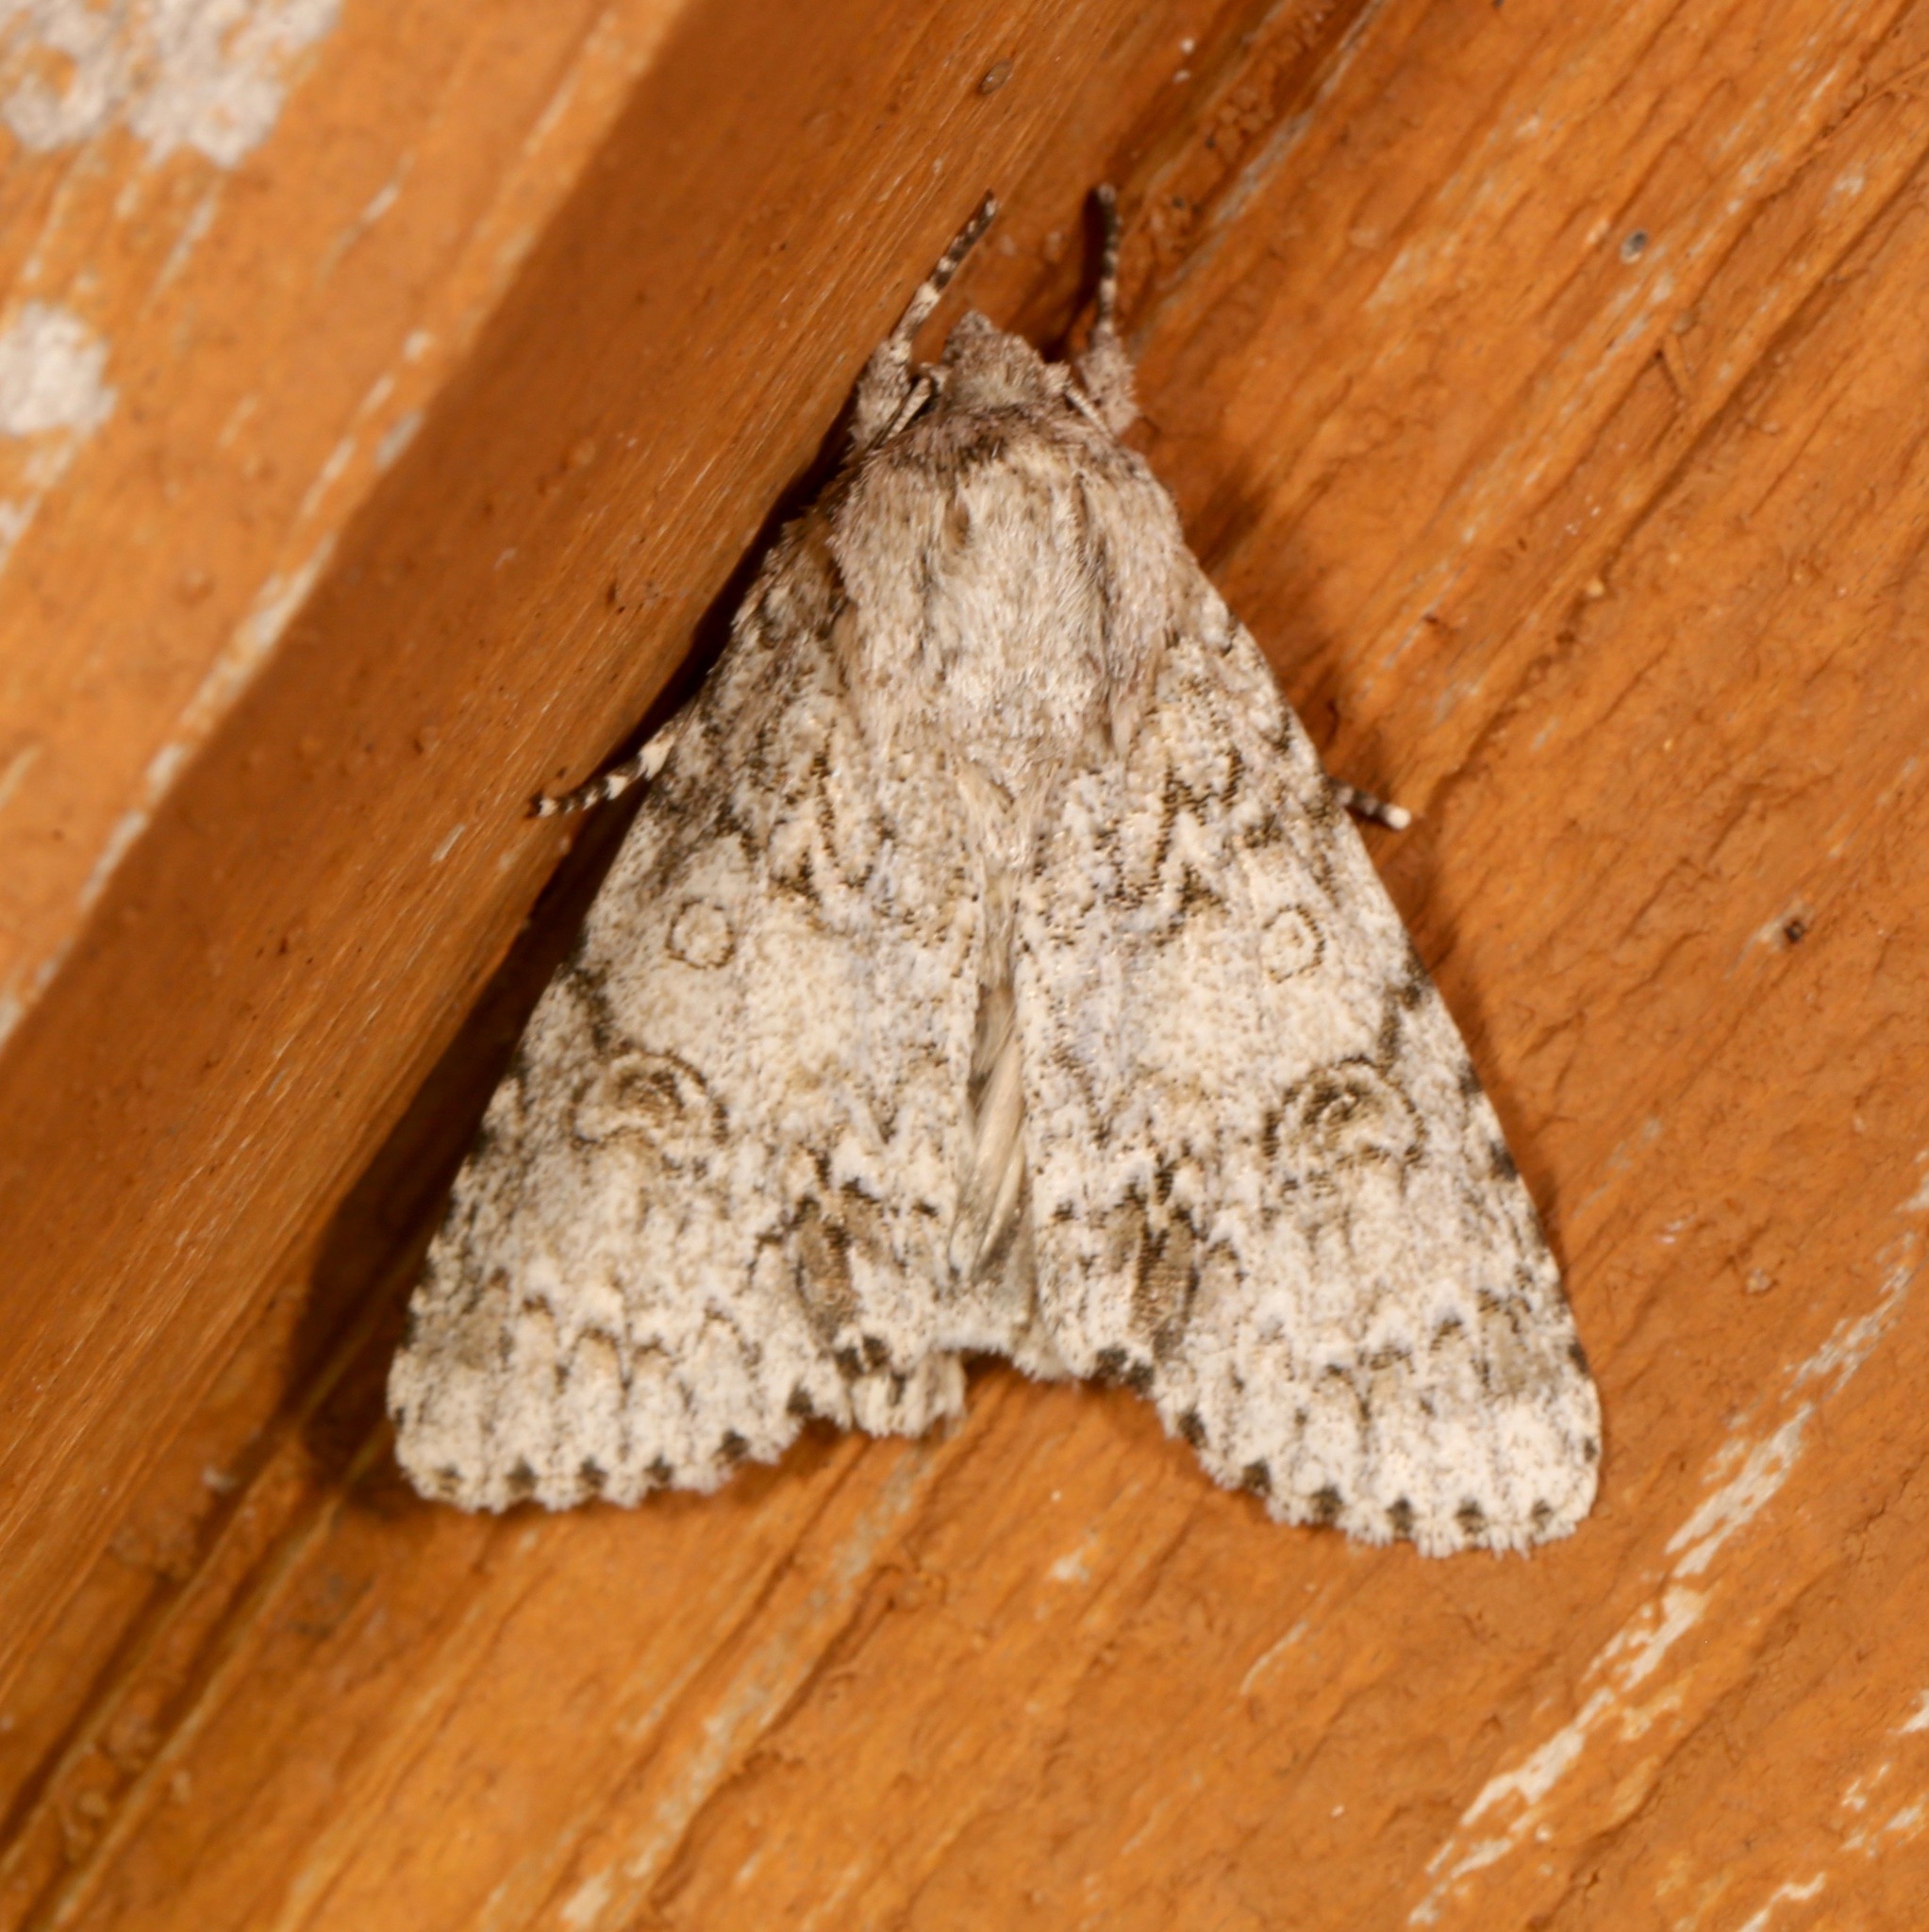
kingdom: Animalia
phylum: Arthropoda
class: Insecta
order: Lepidoptera
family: Noctuidae
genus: Acronicta
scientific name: Acronicta rubricoma
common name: Hackberry dagger
